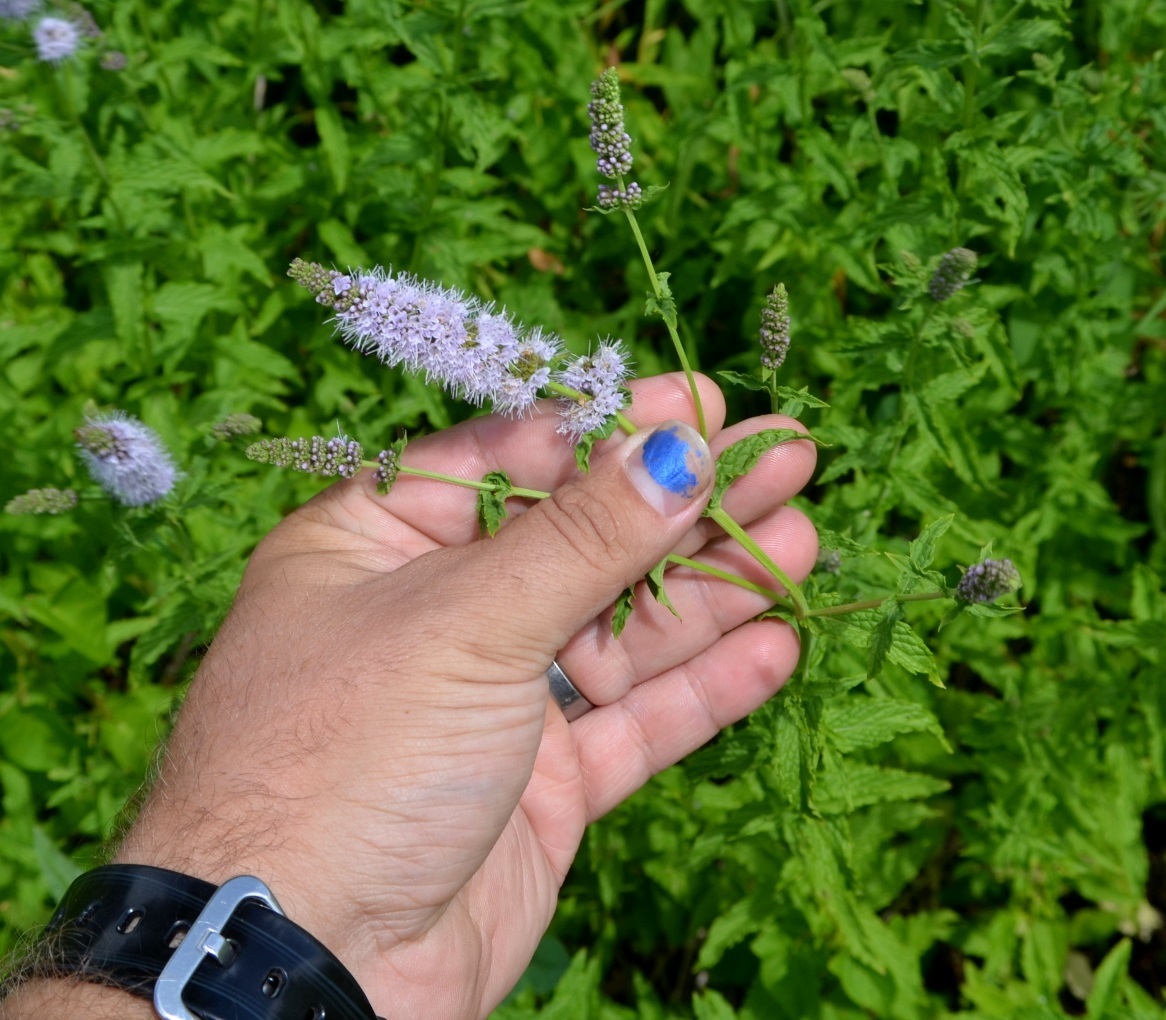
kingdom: Plantae
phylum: Tracheophyta
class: Magnoliopsida
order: Lamiales
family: Lamiaceae
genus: Mentha
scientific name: Mentha spicata
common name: Spearmint
